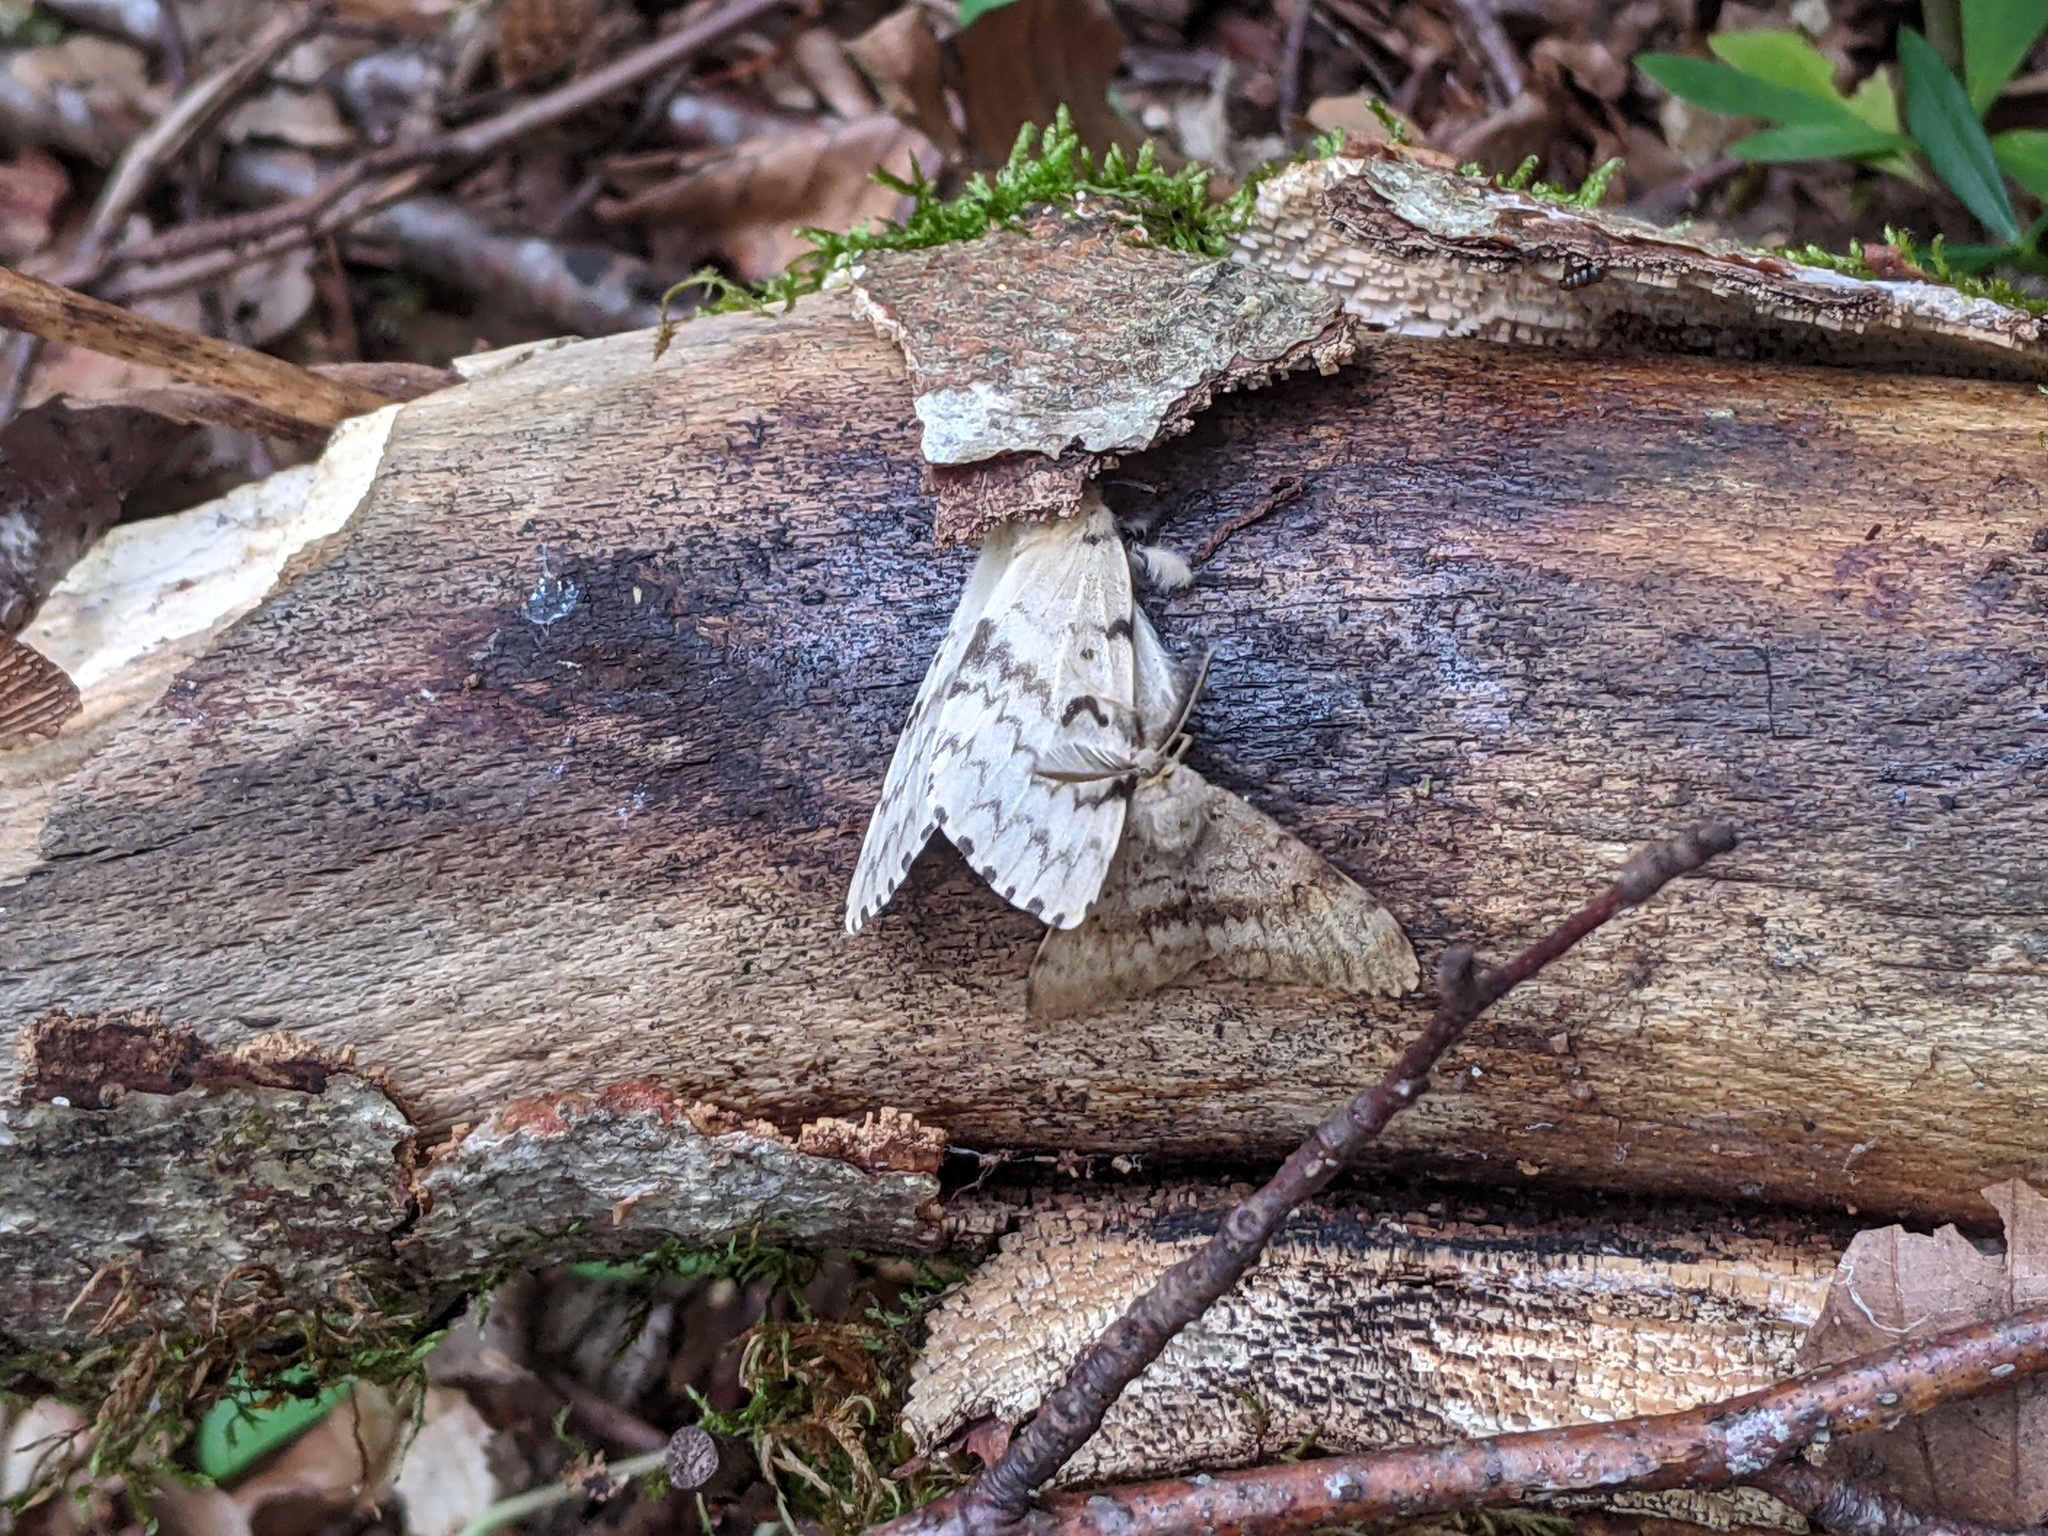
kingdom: Animalia
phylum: Arthropoda
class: Insecta
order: Lepidoptera
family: Erebidae
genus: Lymantria
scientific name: Lymantria dispar
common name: Gypsy moth
